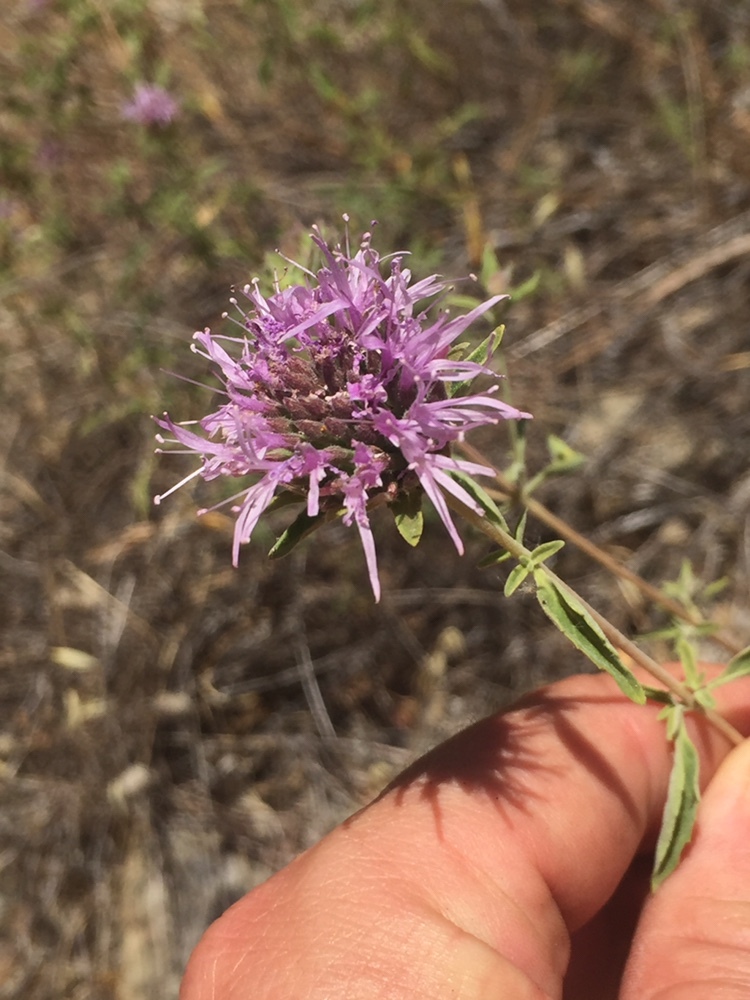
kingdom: Plantae
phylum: Tracheophyta
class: Magnoliopsida
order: Lamiales
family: Lamiaceae
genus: Monardella
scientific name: Monardella odoratissima
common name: Pacific monardella
